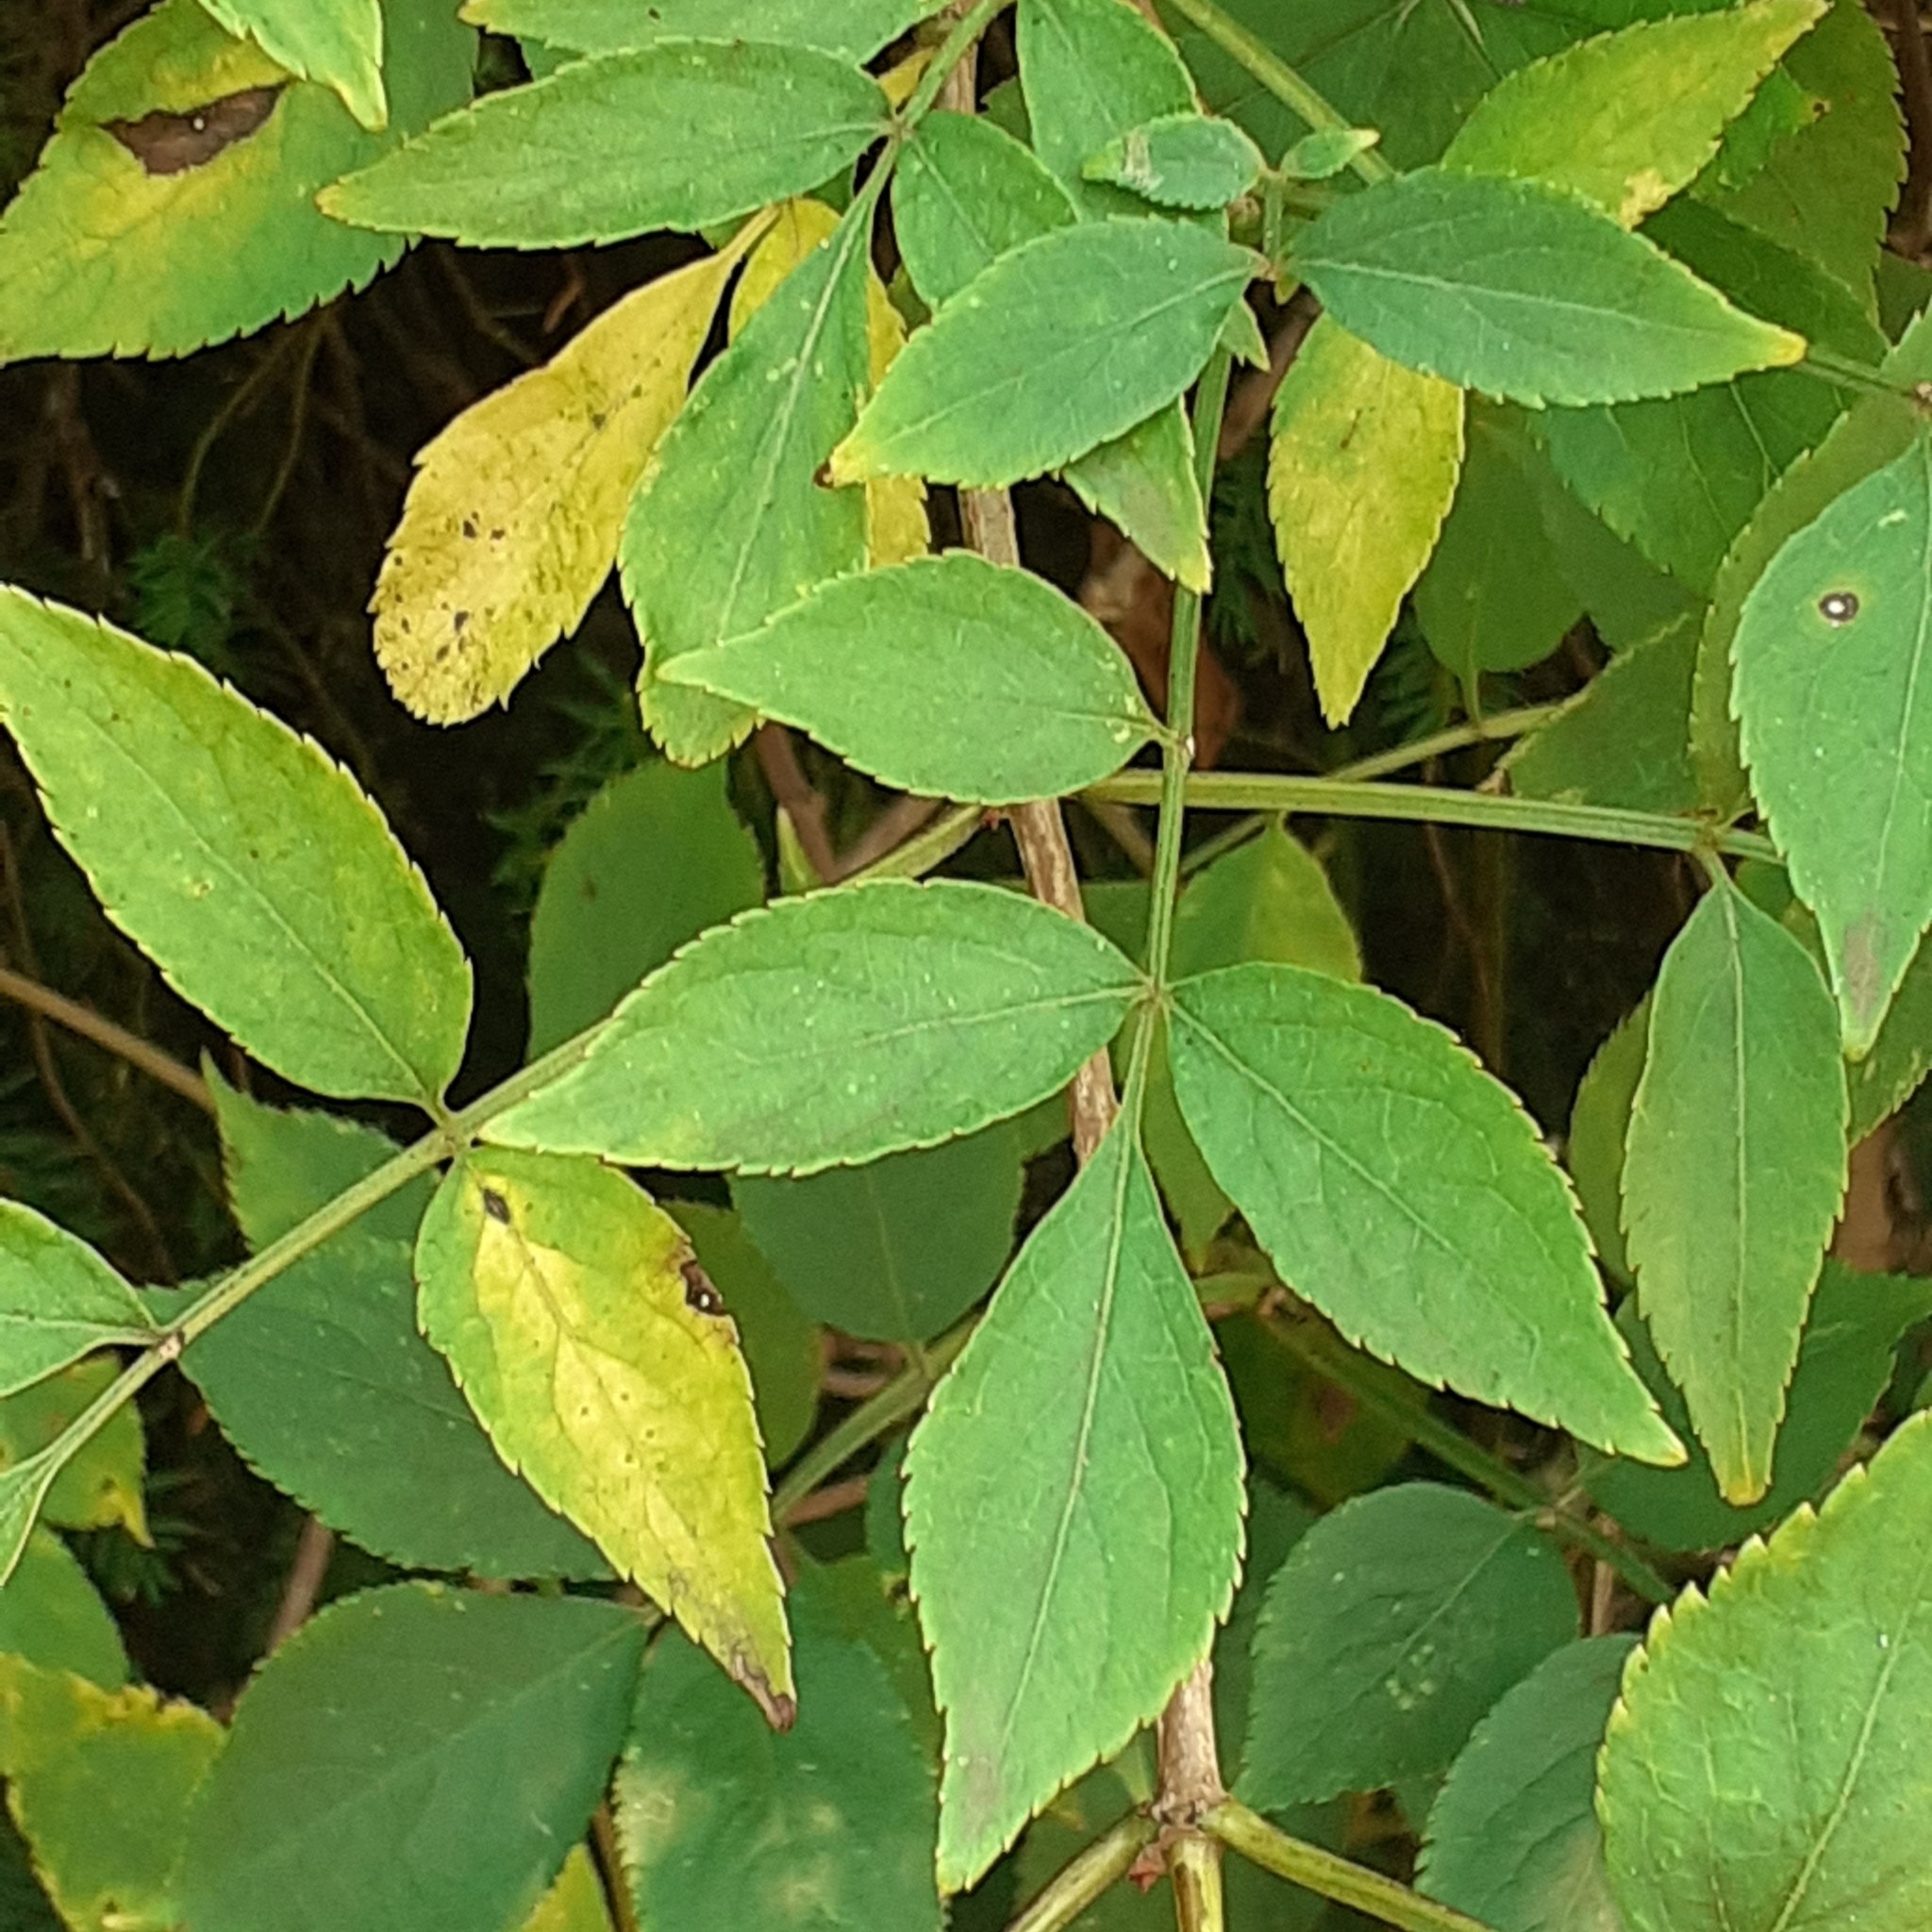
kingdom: Plantae
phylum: Tracheophyta
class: Magnoliopsida
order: Dipsacales
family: Viburnaceae
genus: Sambucus
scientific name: Sambucus nigra
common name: Elder
